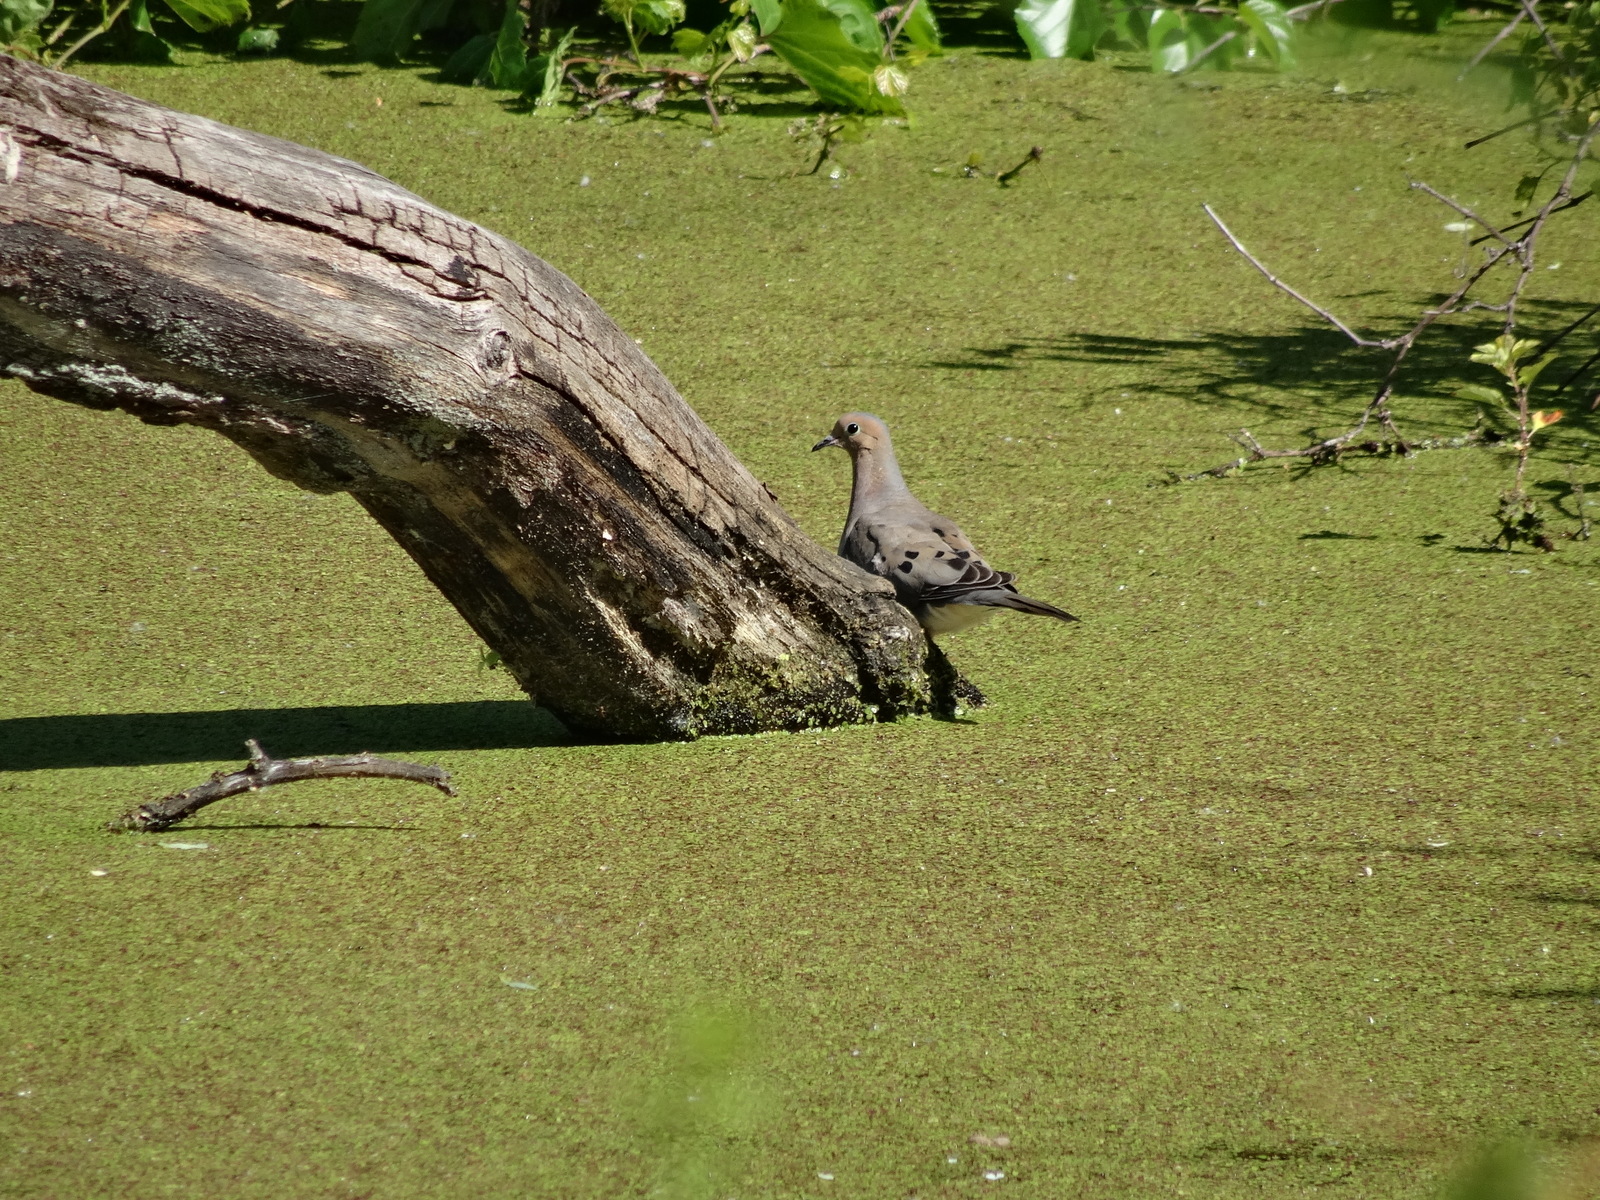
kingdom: Animalia
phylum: Chordata
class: Aves
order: Columbiformes
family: Columbidae
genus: Zenaida
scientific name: Zenaida macroura
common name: Mourning dove
